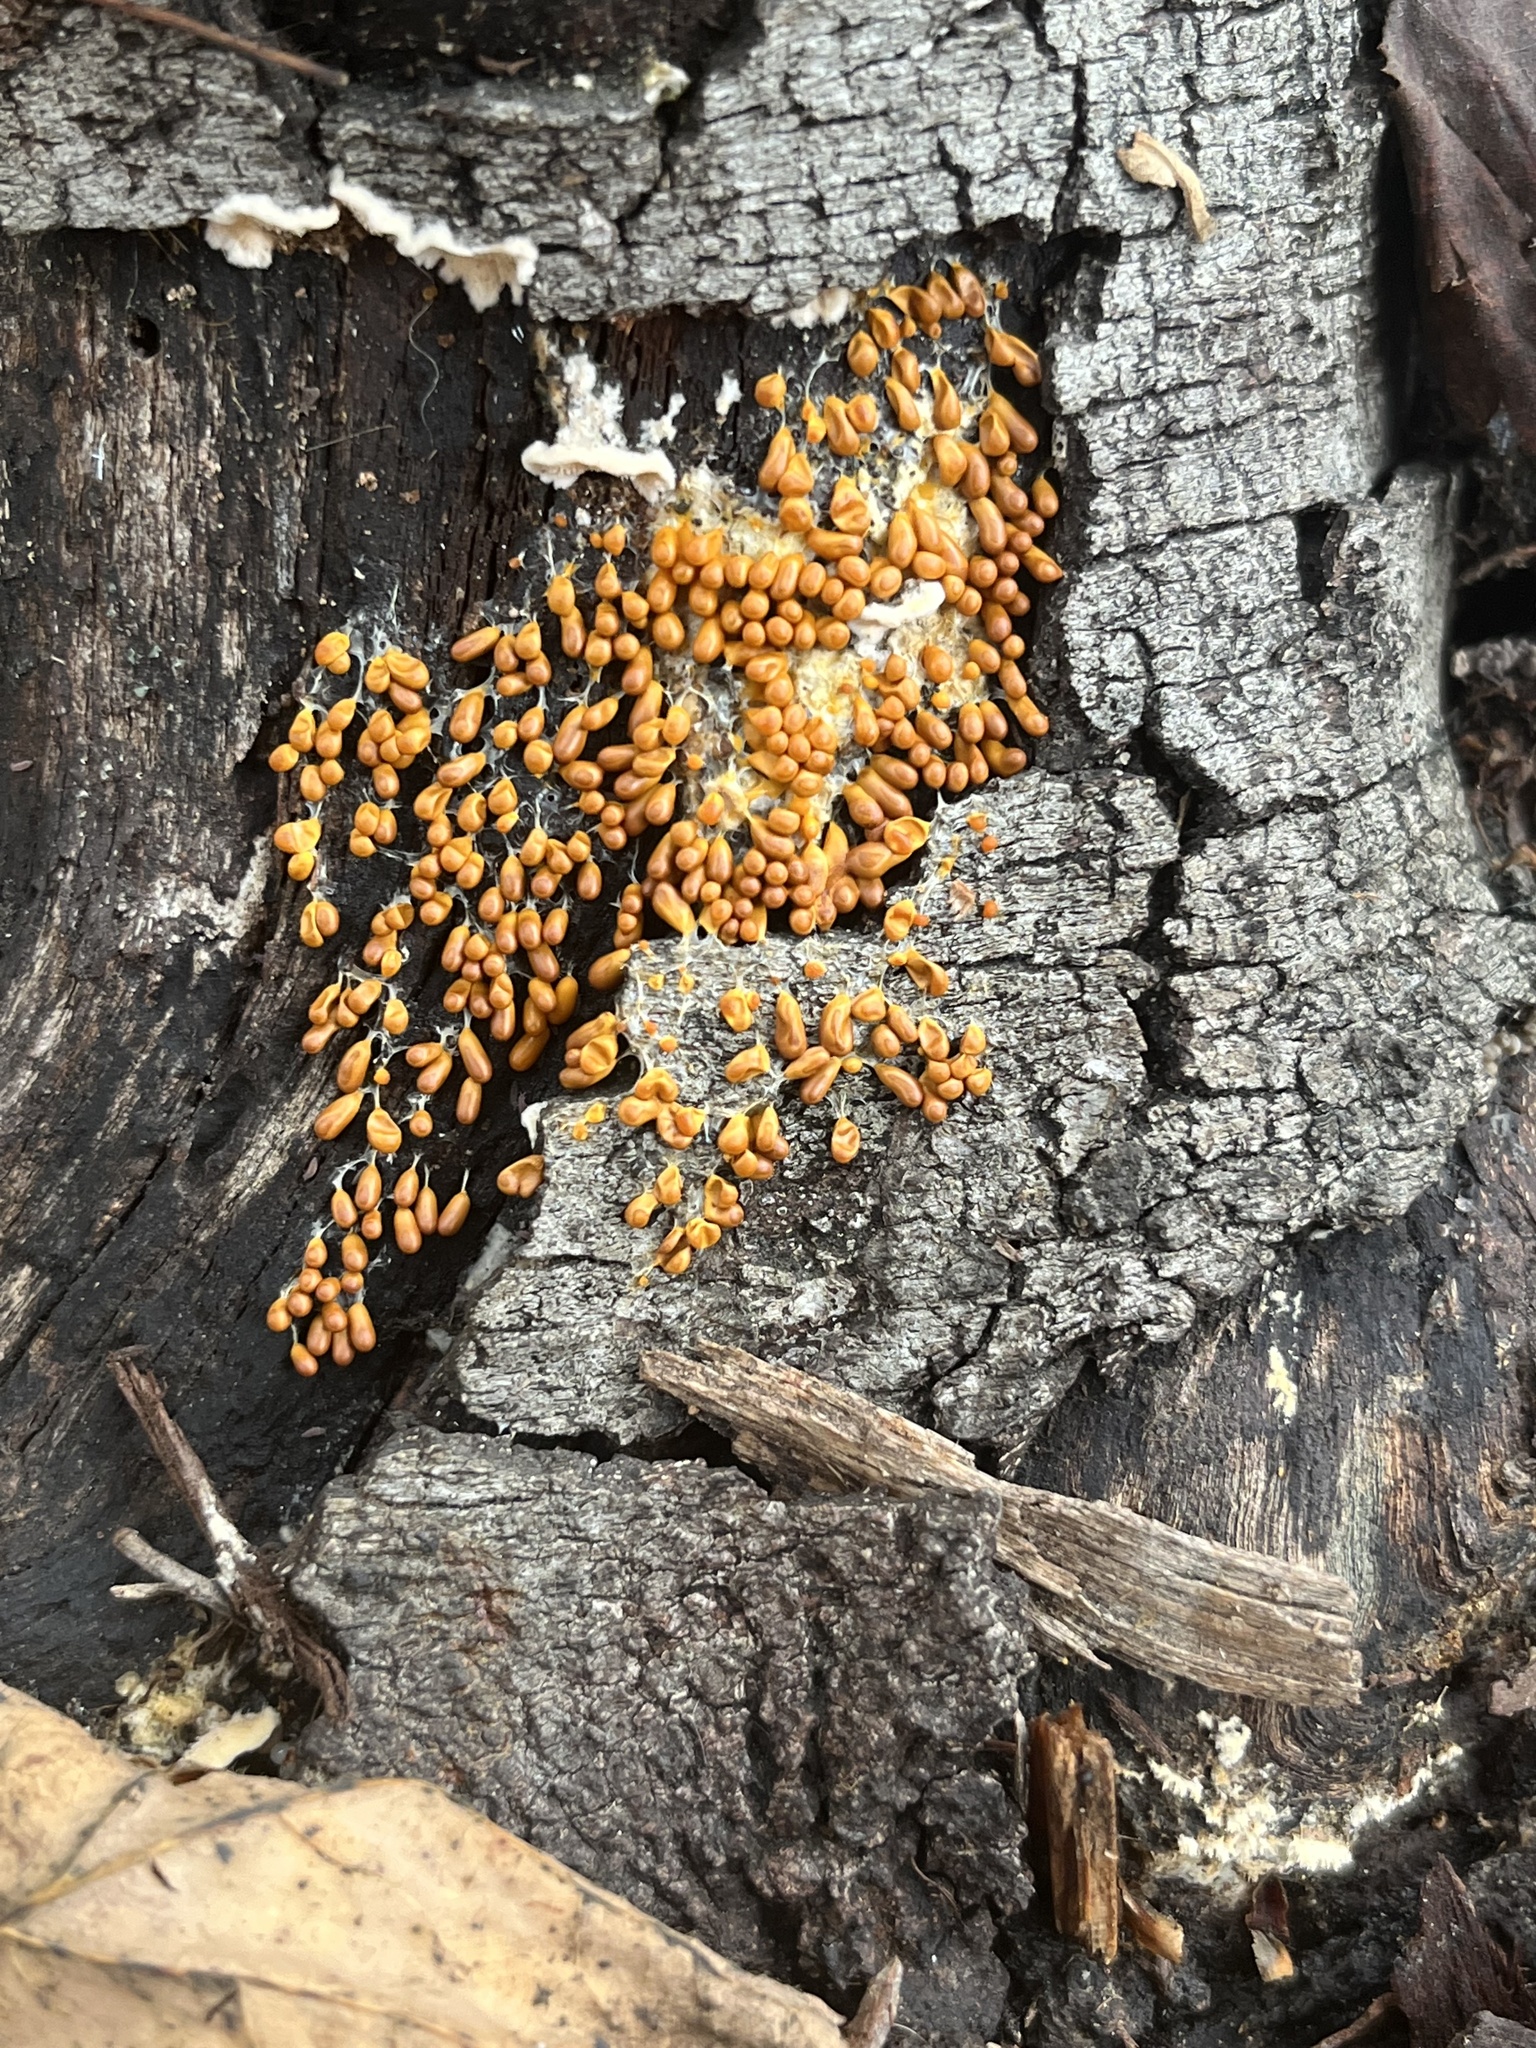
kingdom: Protozoa
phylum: Mycetozoa
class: Myxomycetes
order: Physarales
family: Physaraceae
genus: Leocarpus
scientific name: Leocarpus fragilis
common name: Insect-egg slime
